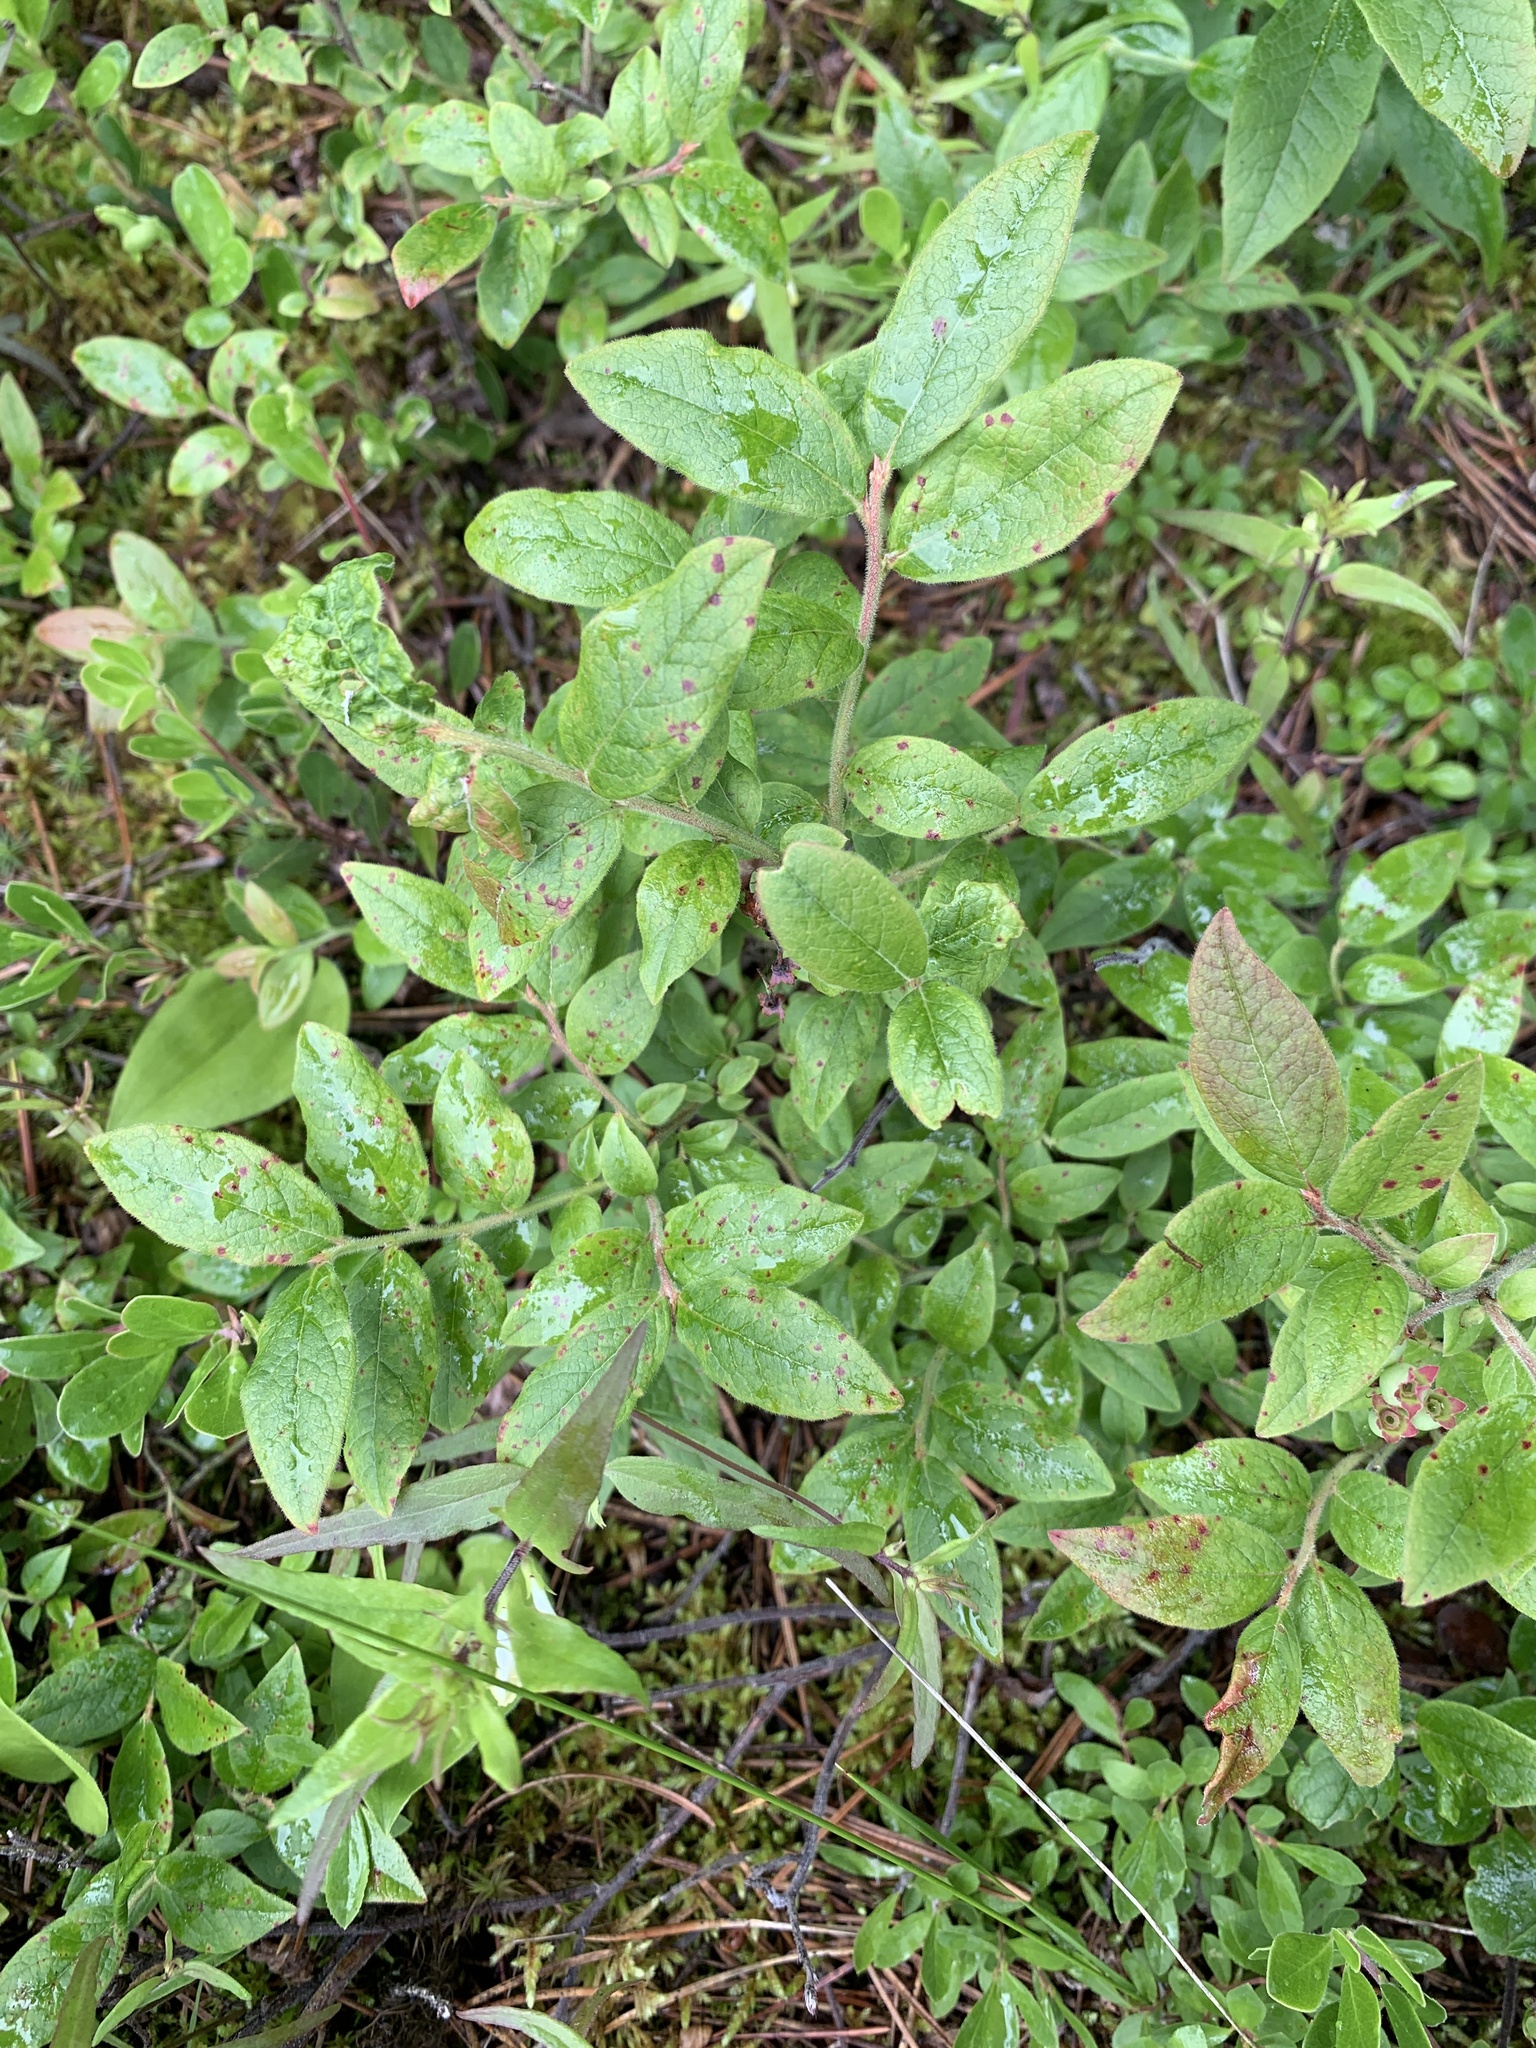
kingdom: Plantae
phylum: Tracheophyta
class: Magnoliopsida
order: Ericales
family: Ericaceae
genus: Vaccinium
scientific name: Vaccinium myrtilloides
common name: Canada blueberry
